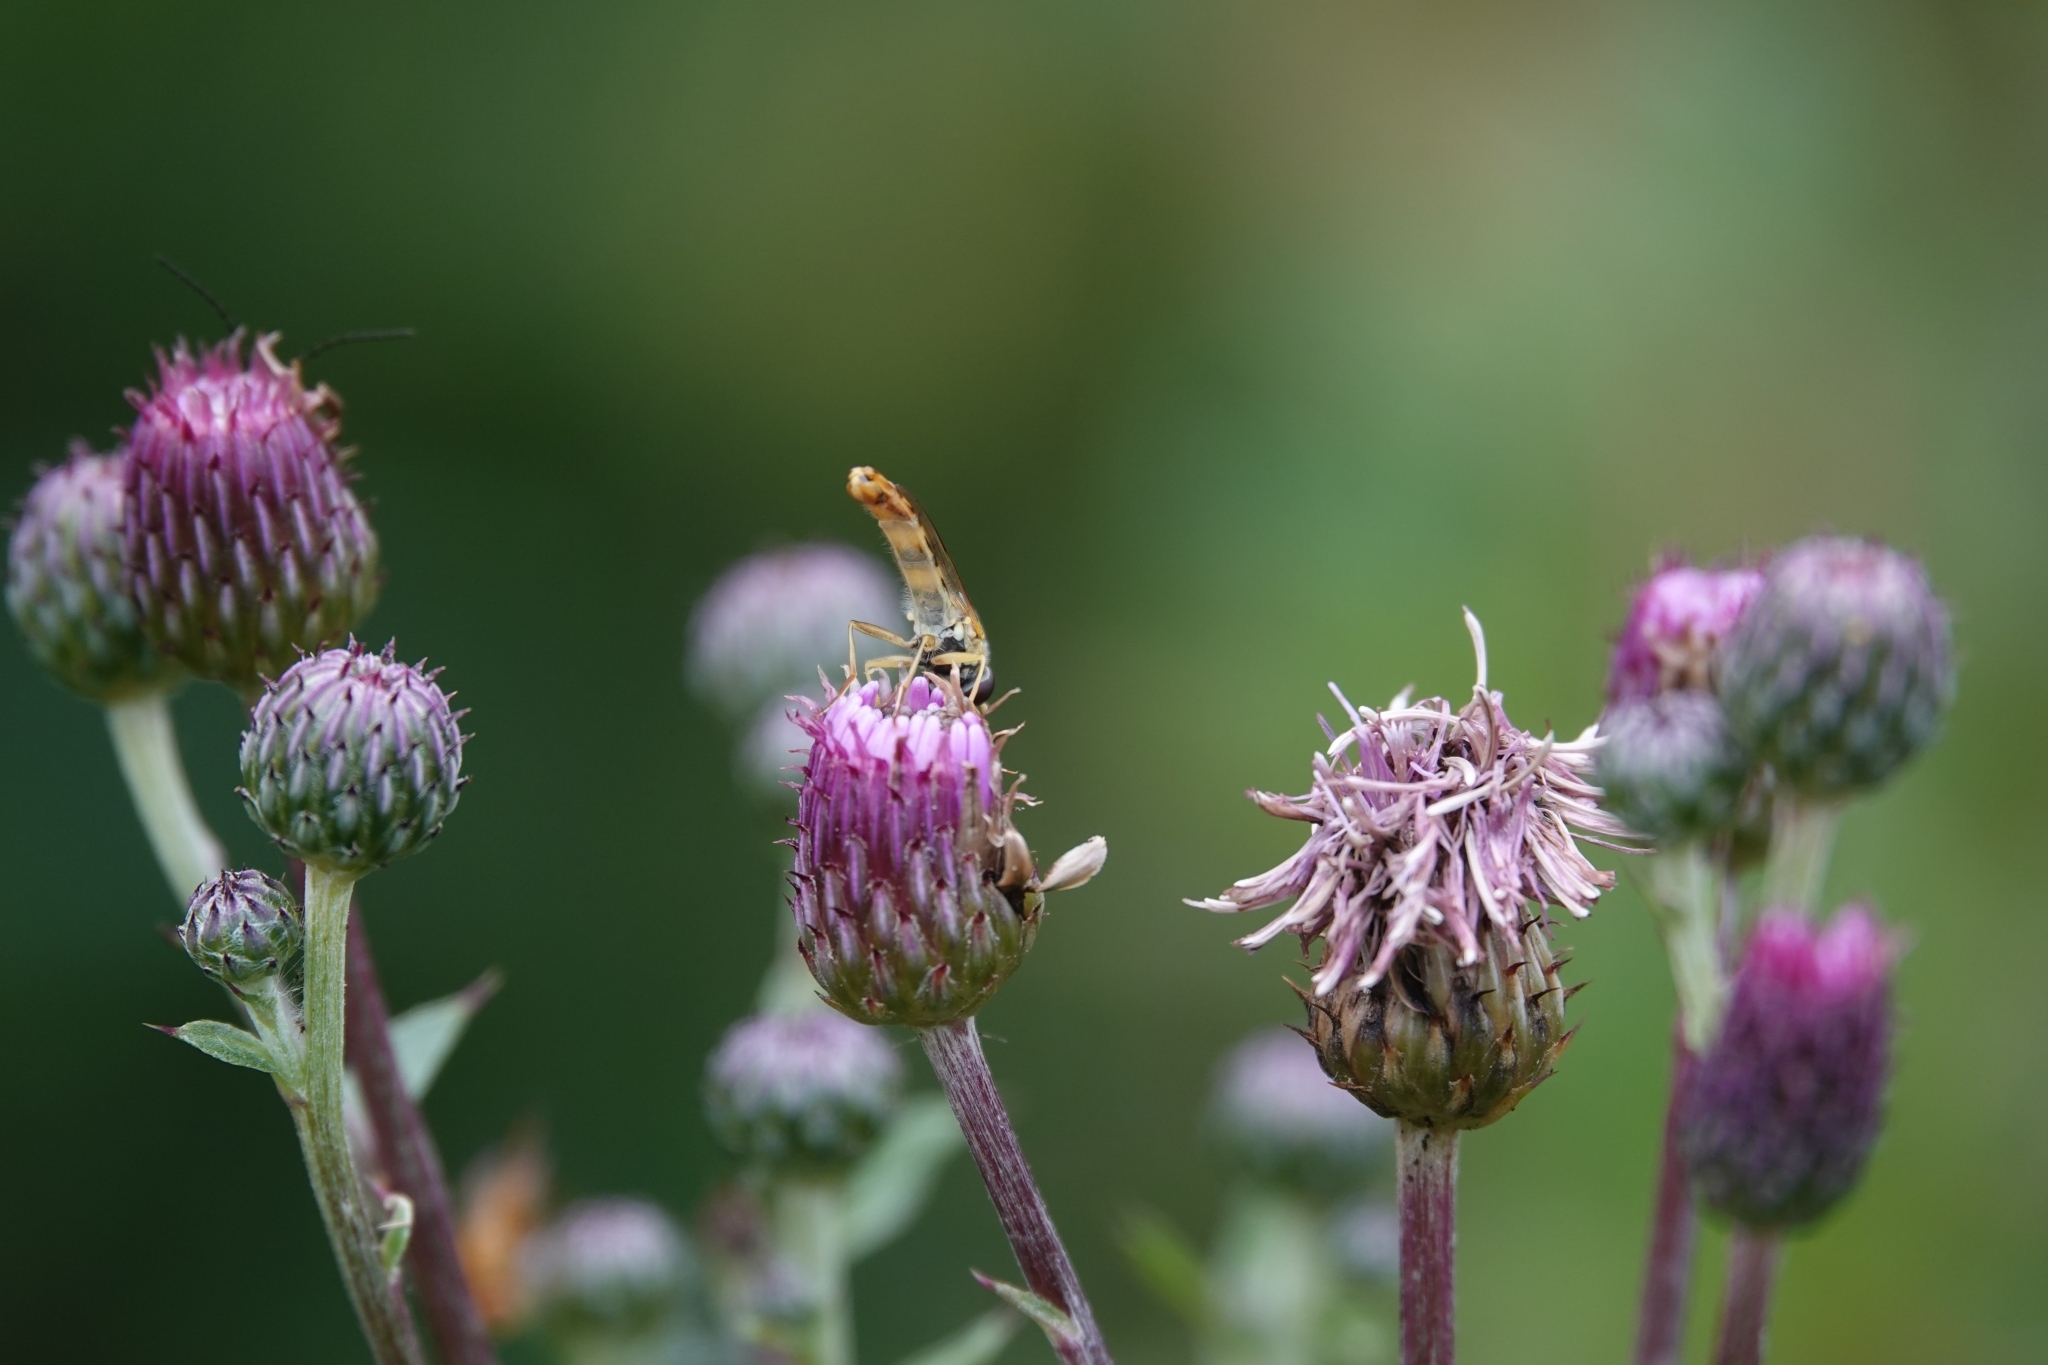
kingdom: Animalia
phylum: Arthropoda
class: Insecta
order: Diptera
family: Syrphidae
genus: Sphaerophoria
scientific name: Sphaerophoria scripta
